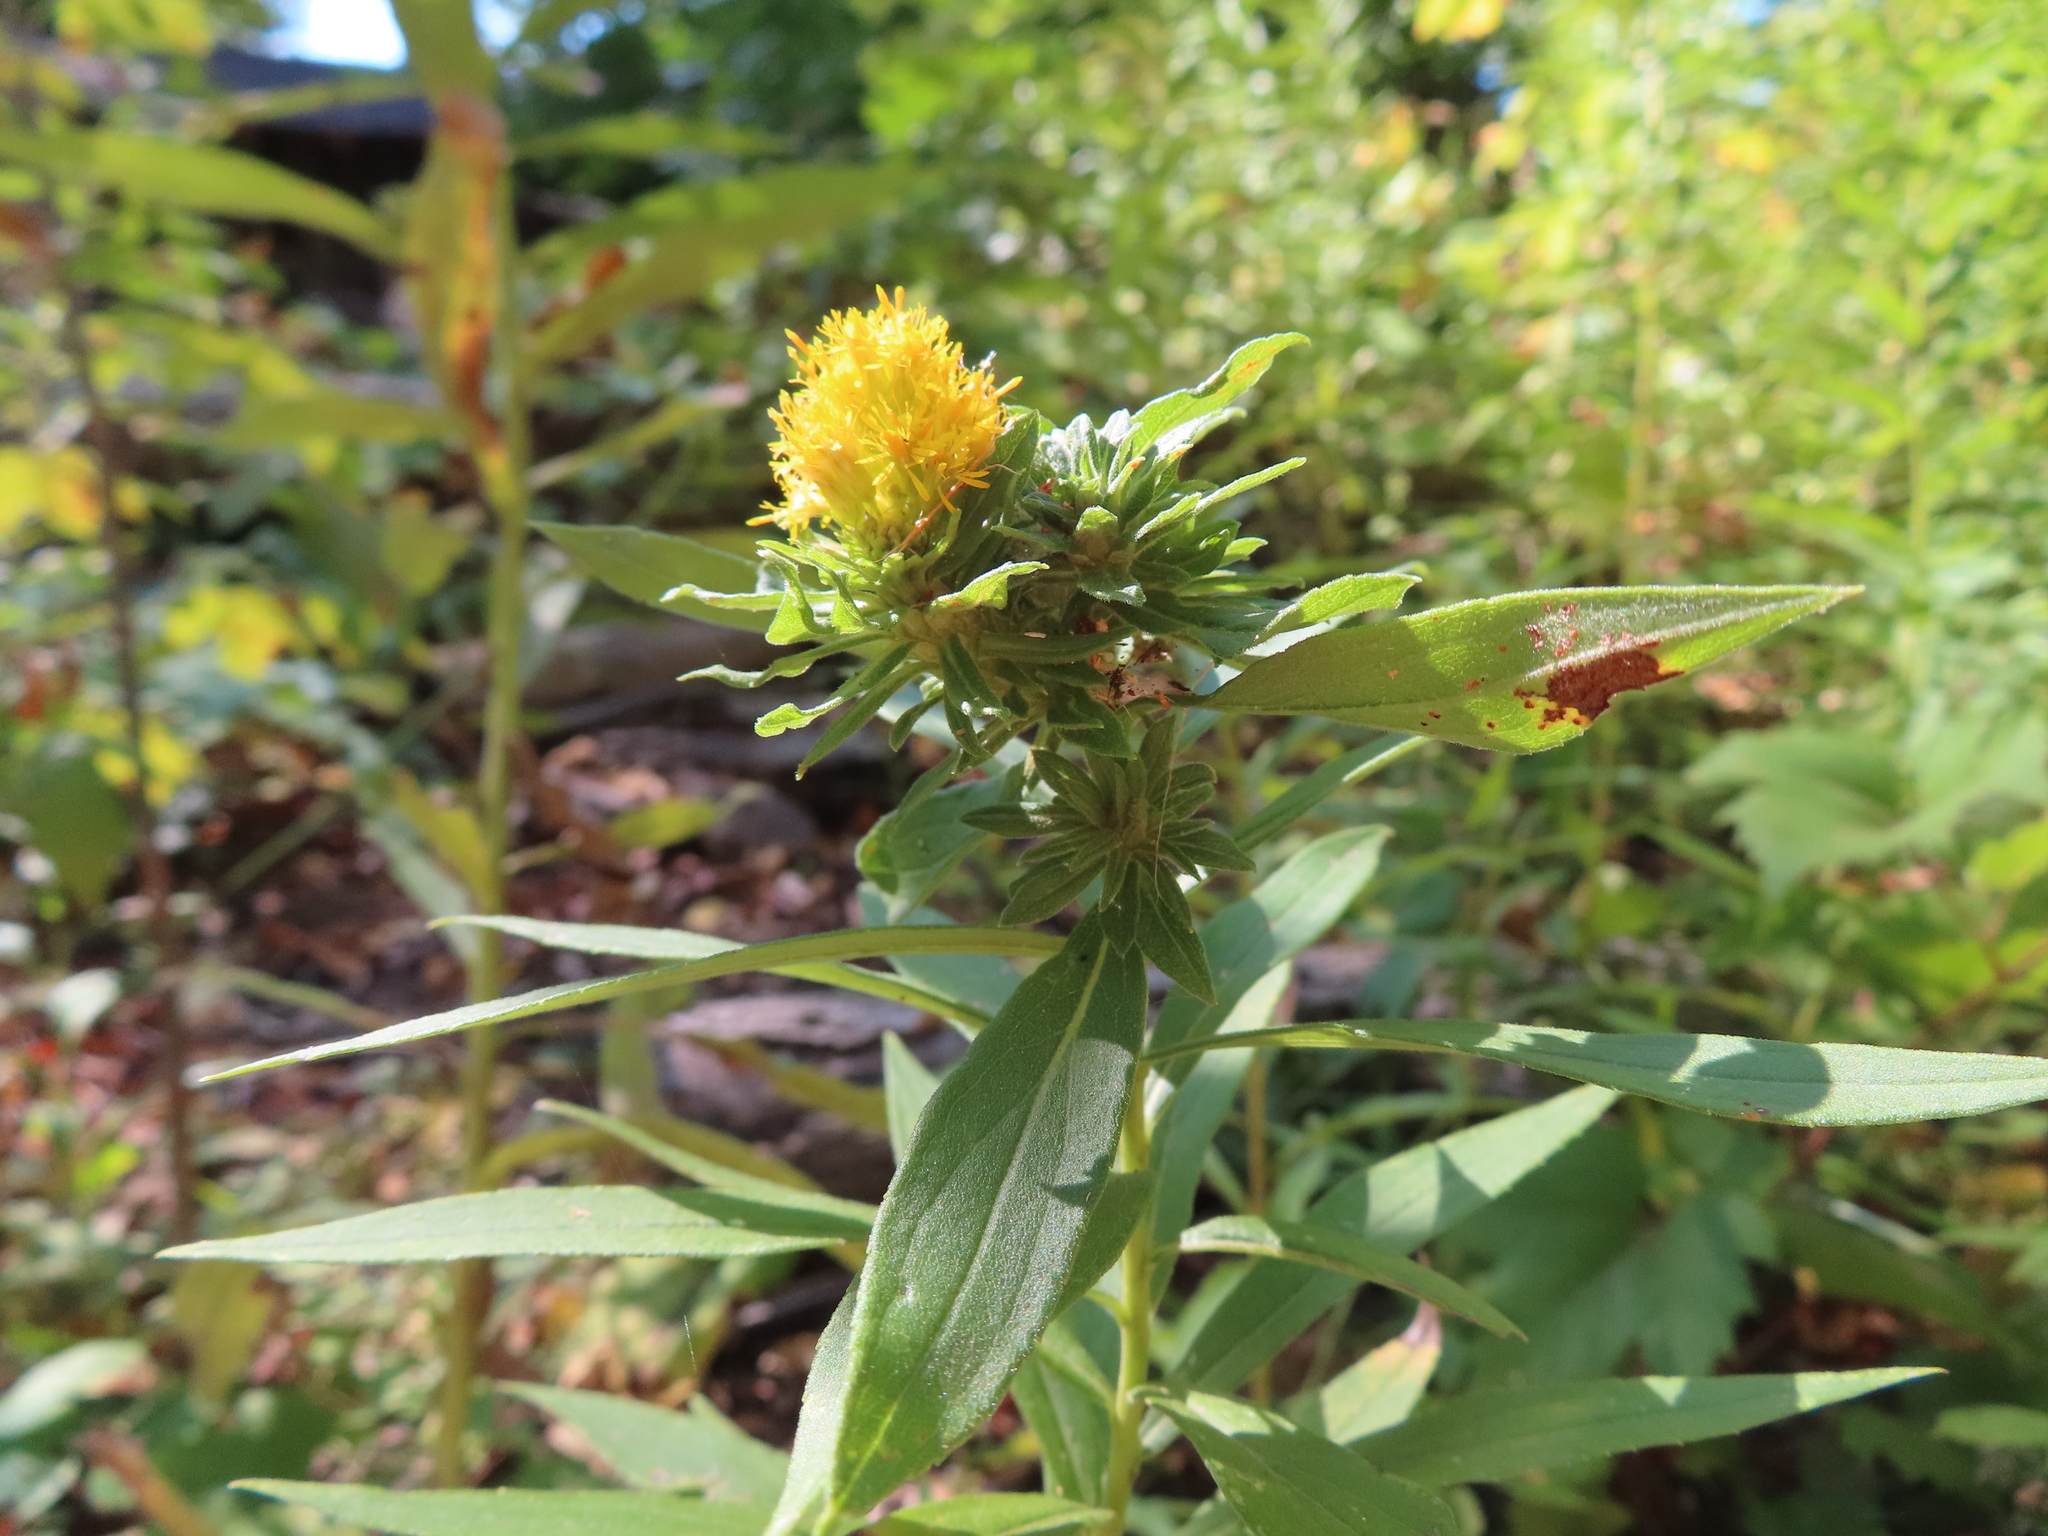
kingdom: Animalia
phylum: Arthropoda
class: Insecta
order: Diptera
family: Tephritidae
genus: Procecidochares
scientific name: Procecidochares atra
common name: Goldenrod brussels sprout gall fly
